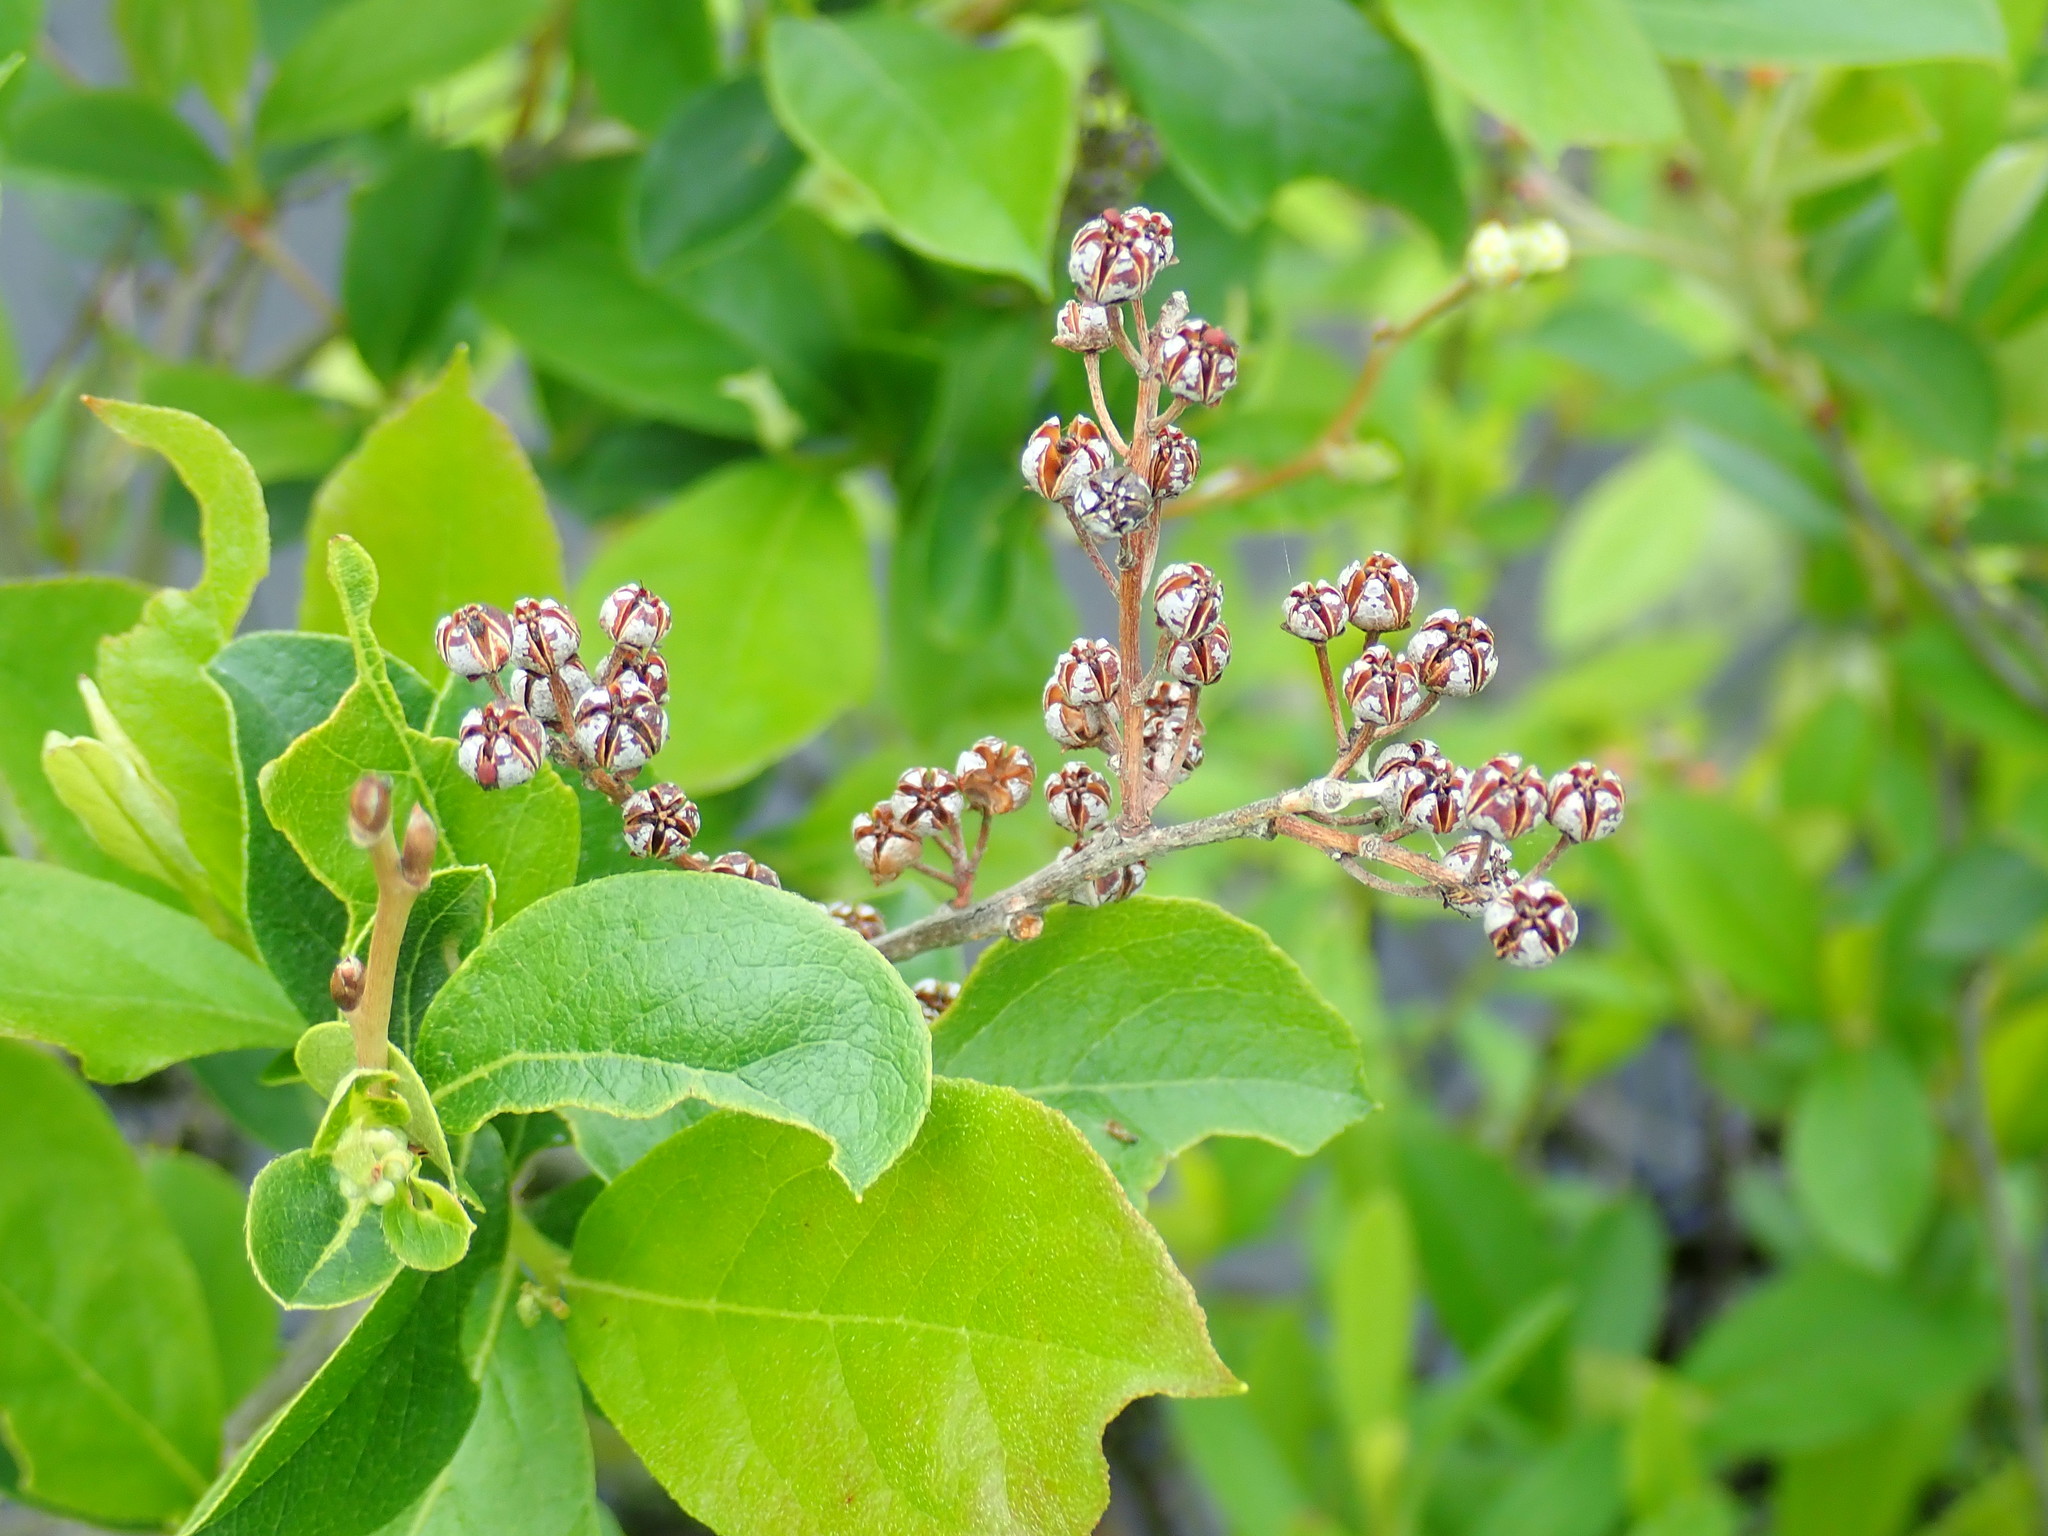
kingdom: Plantae
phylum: Tracheophyta
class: Magnoliopsida
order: Ericales
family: Ericaceae
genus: Lyonia
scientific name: Lyonia ligustrina
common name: Maleberry
